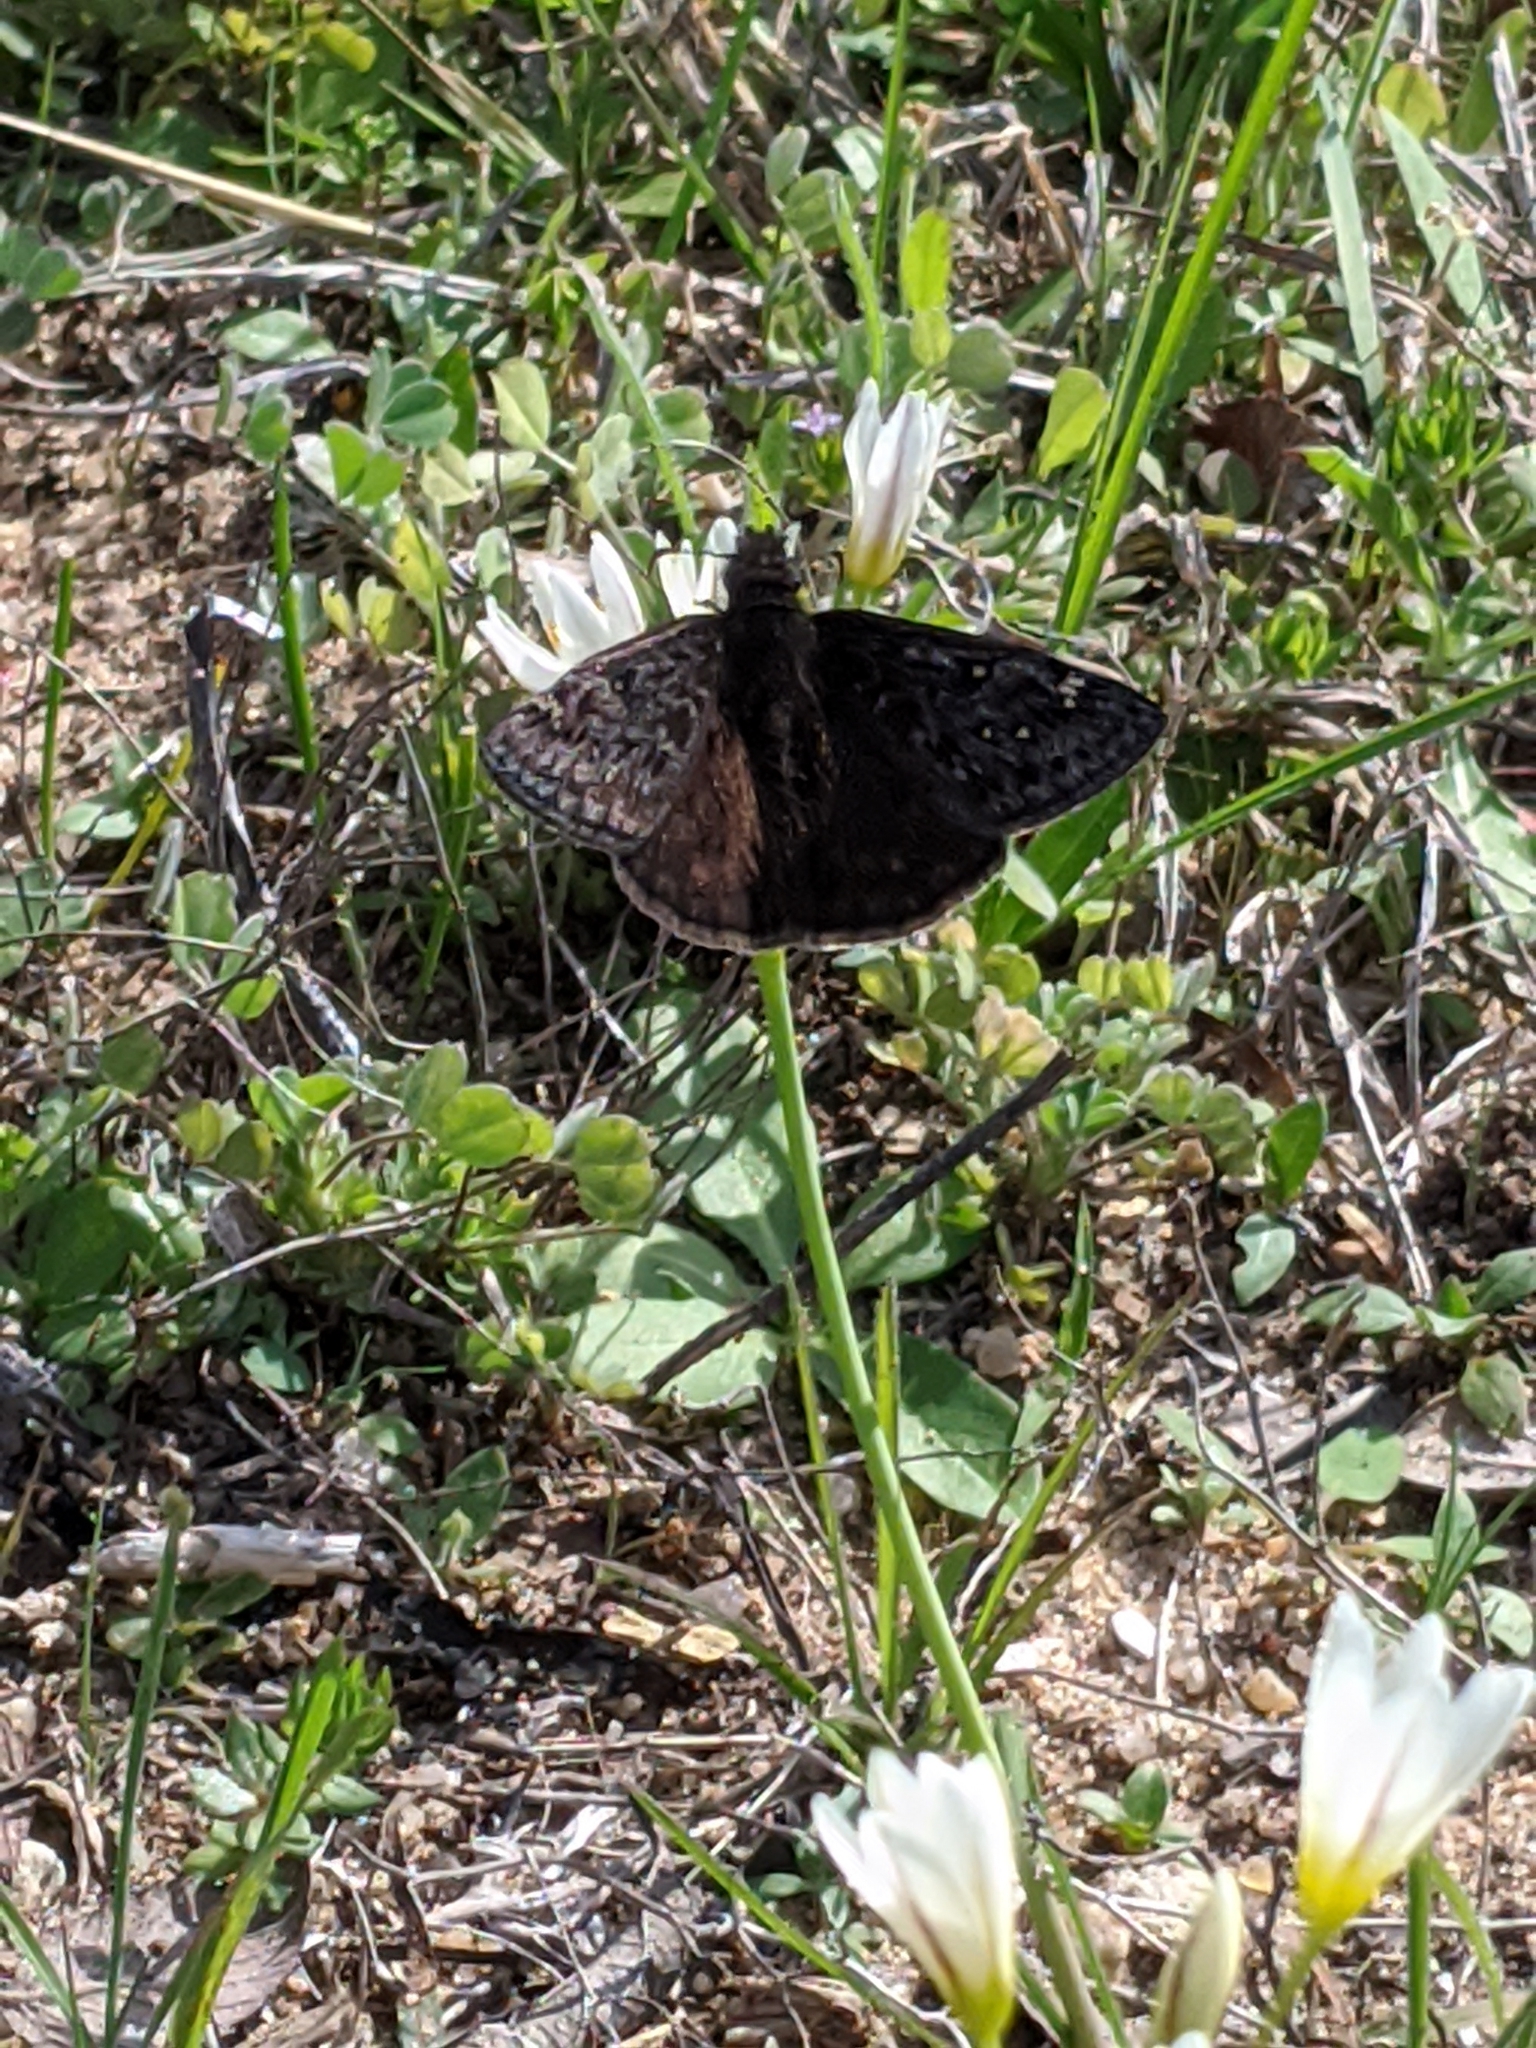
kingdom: Animalia
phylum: Arthropoda
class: Insecta
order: Lepidoptera
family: Hesperiidae
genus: Erynnis
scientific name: Erynnis juvenalis
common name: Juvenal's duskywing
